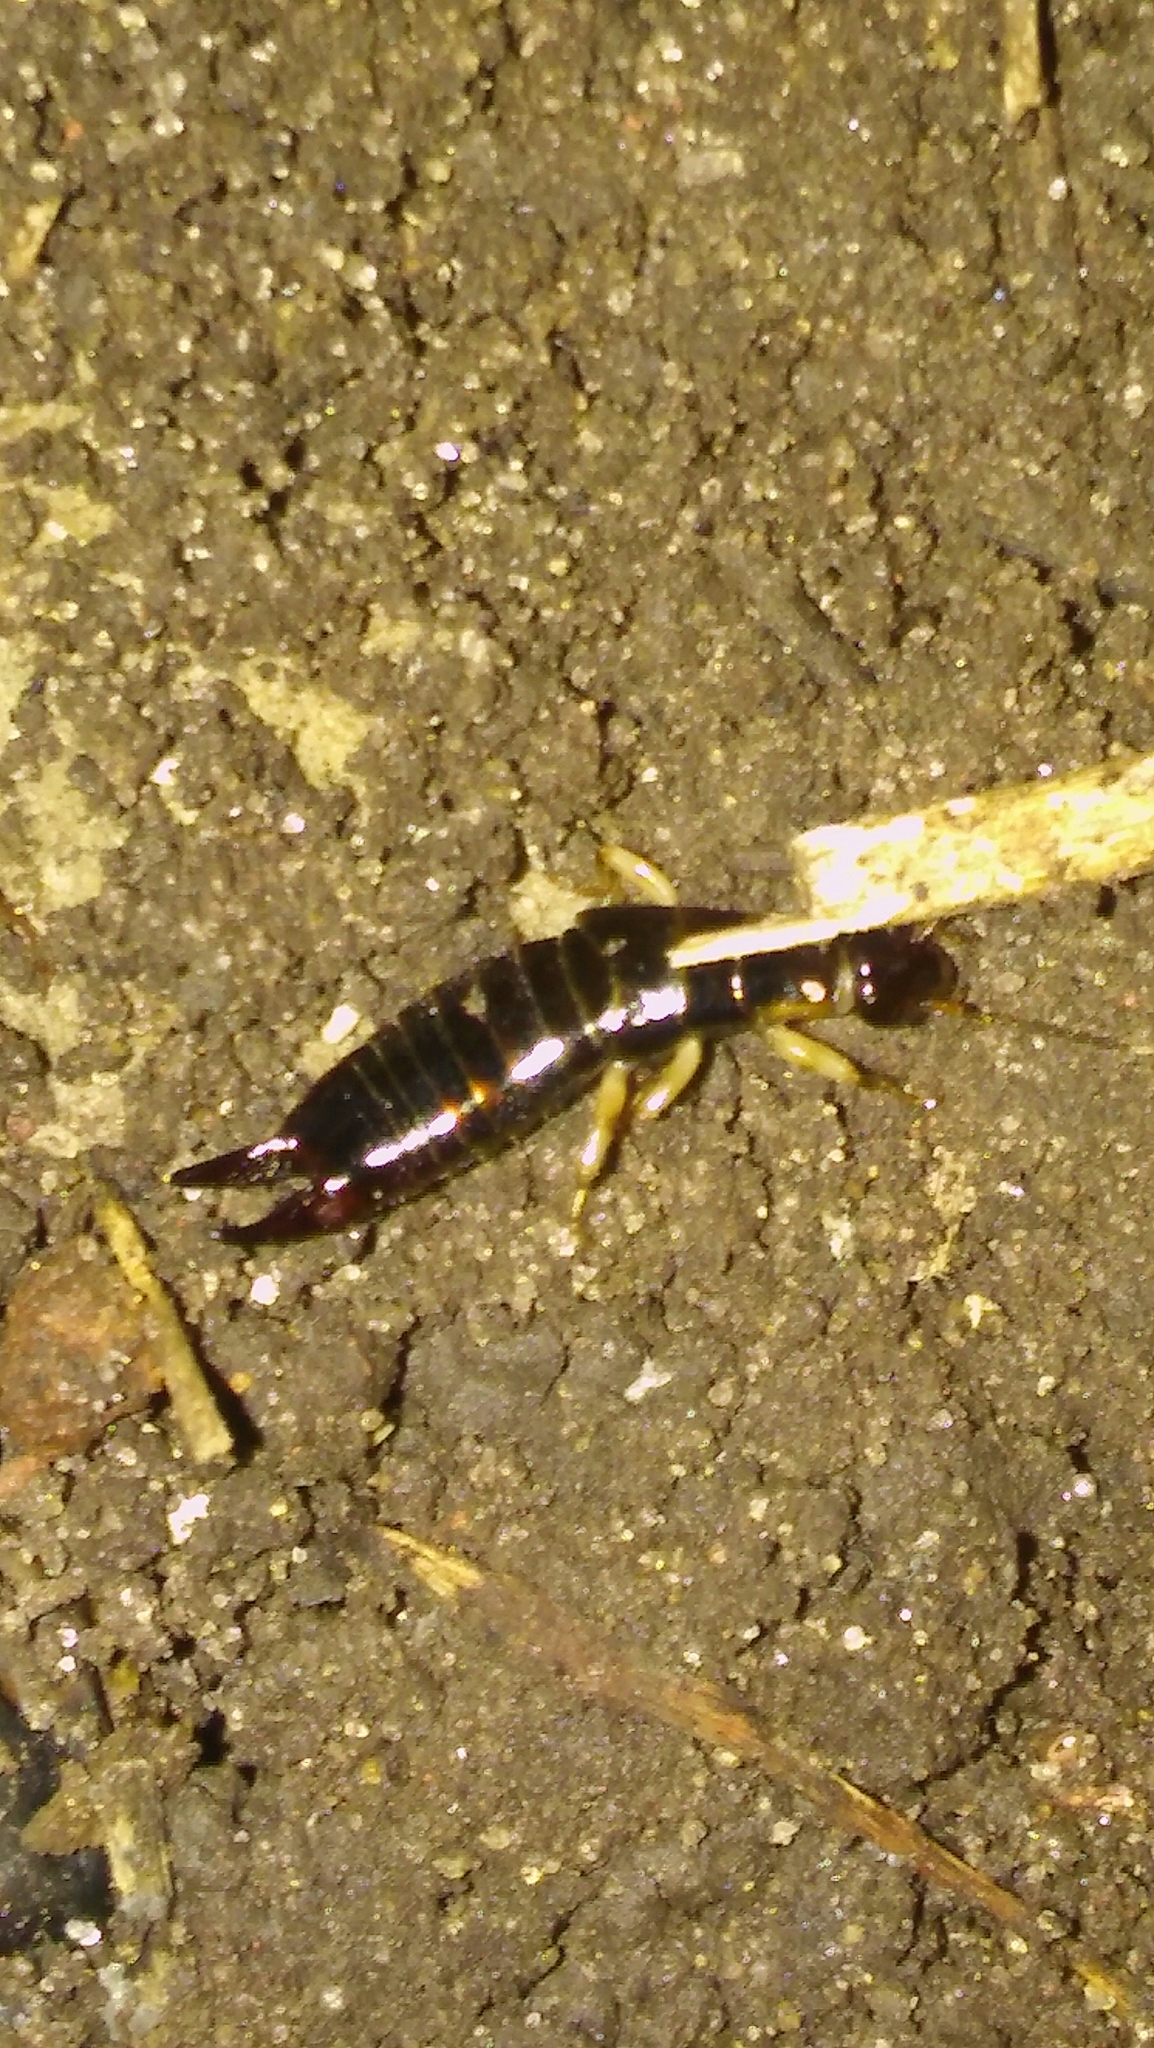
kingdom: Animalia
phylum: Arthropoda
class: Insecta
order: Dermaptera
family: Anisolabididae
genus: Euborellia
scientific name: Euborellia annulipes
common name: Ringlegged earwig
